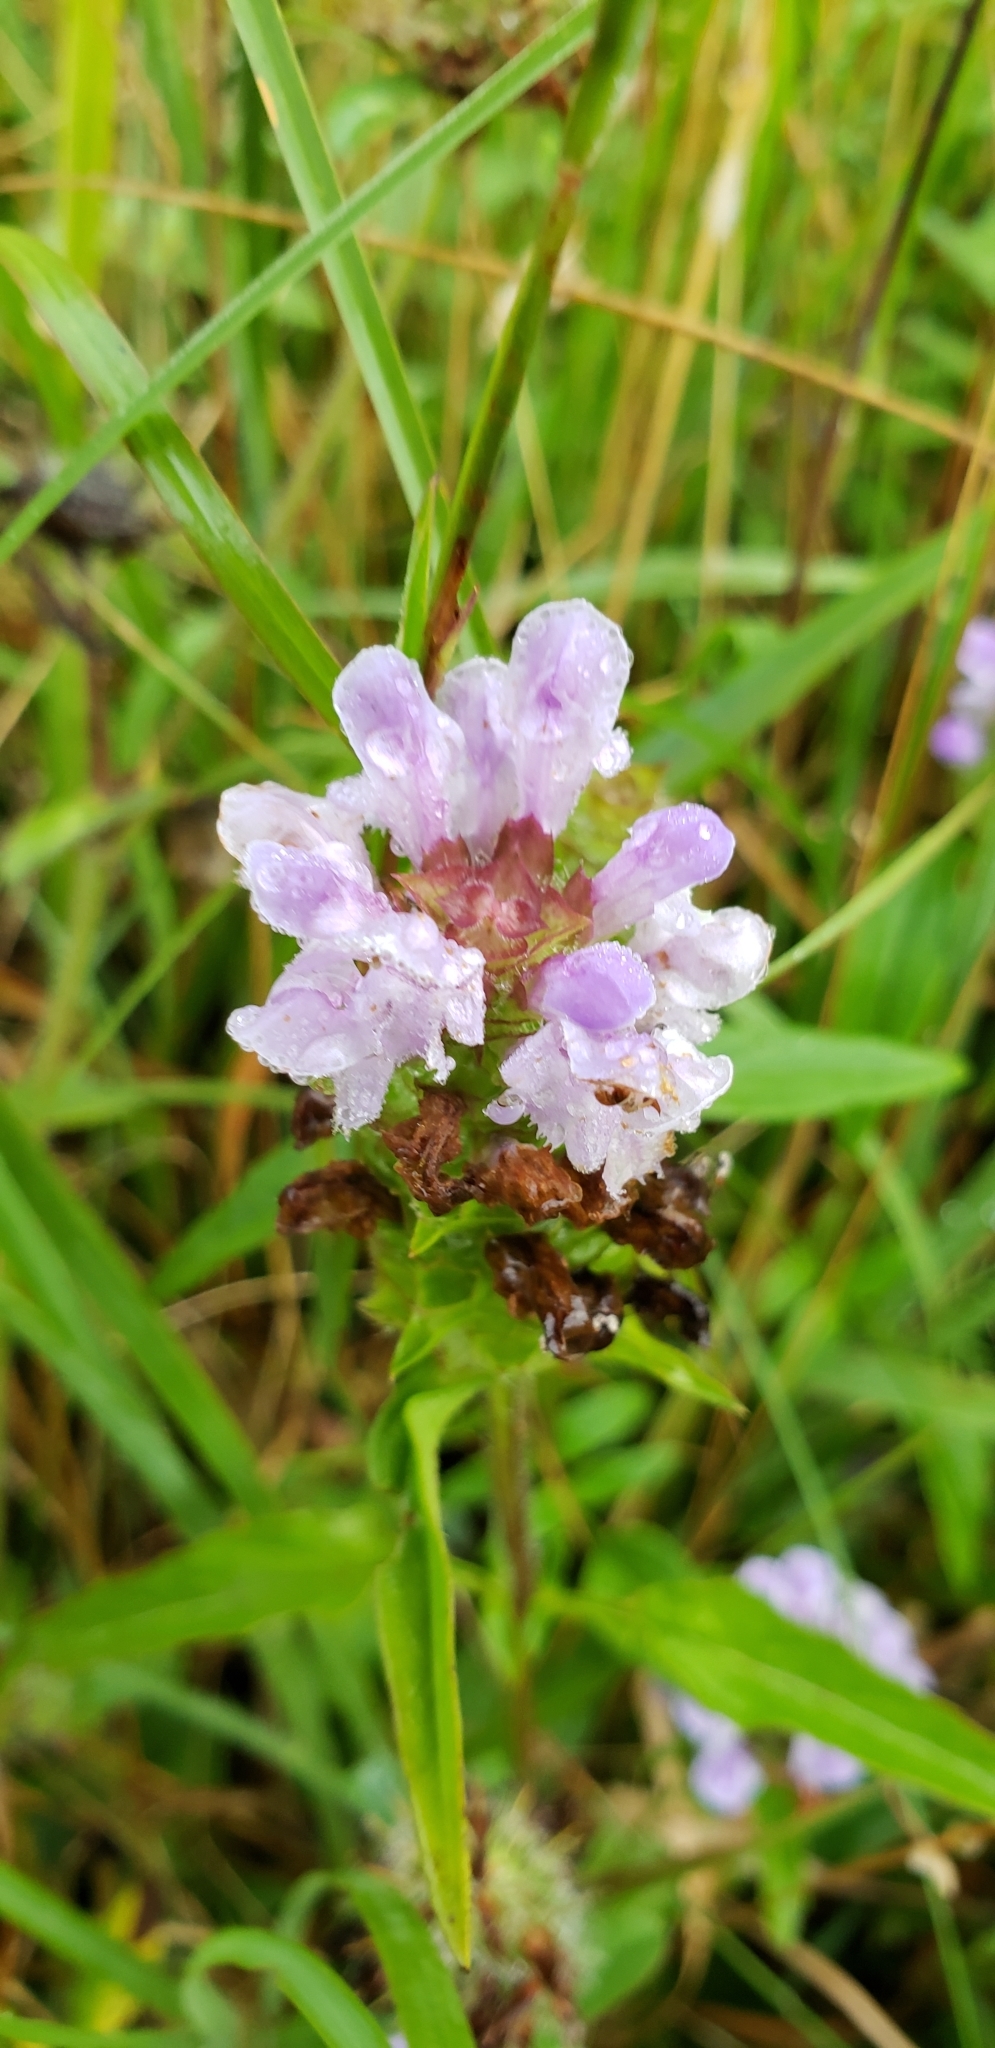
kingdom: Plantae
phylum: Tracheophyta
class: Magnoliopsida
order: Lamiales
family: Lamiaceae
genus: Prunella
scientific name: Prunella vulgaris
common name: Heal-all
